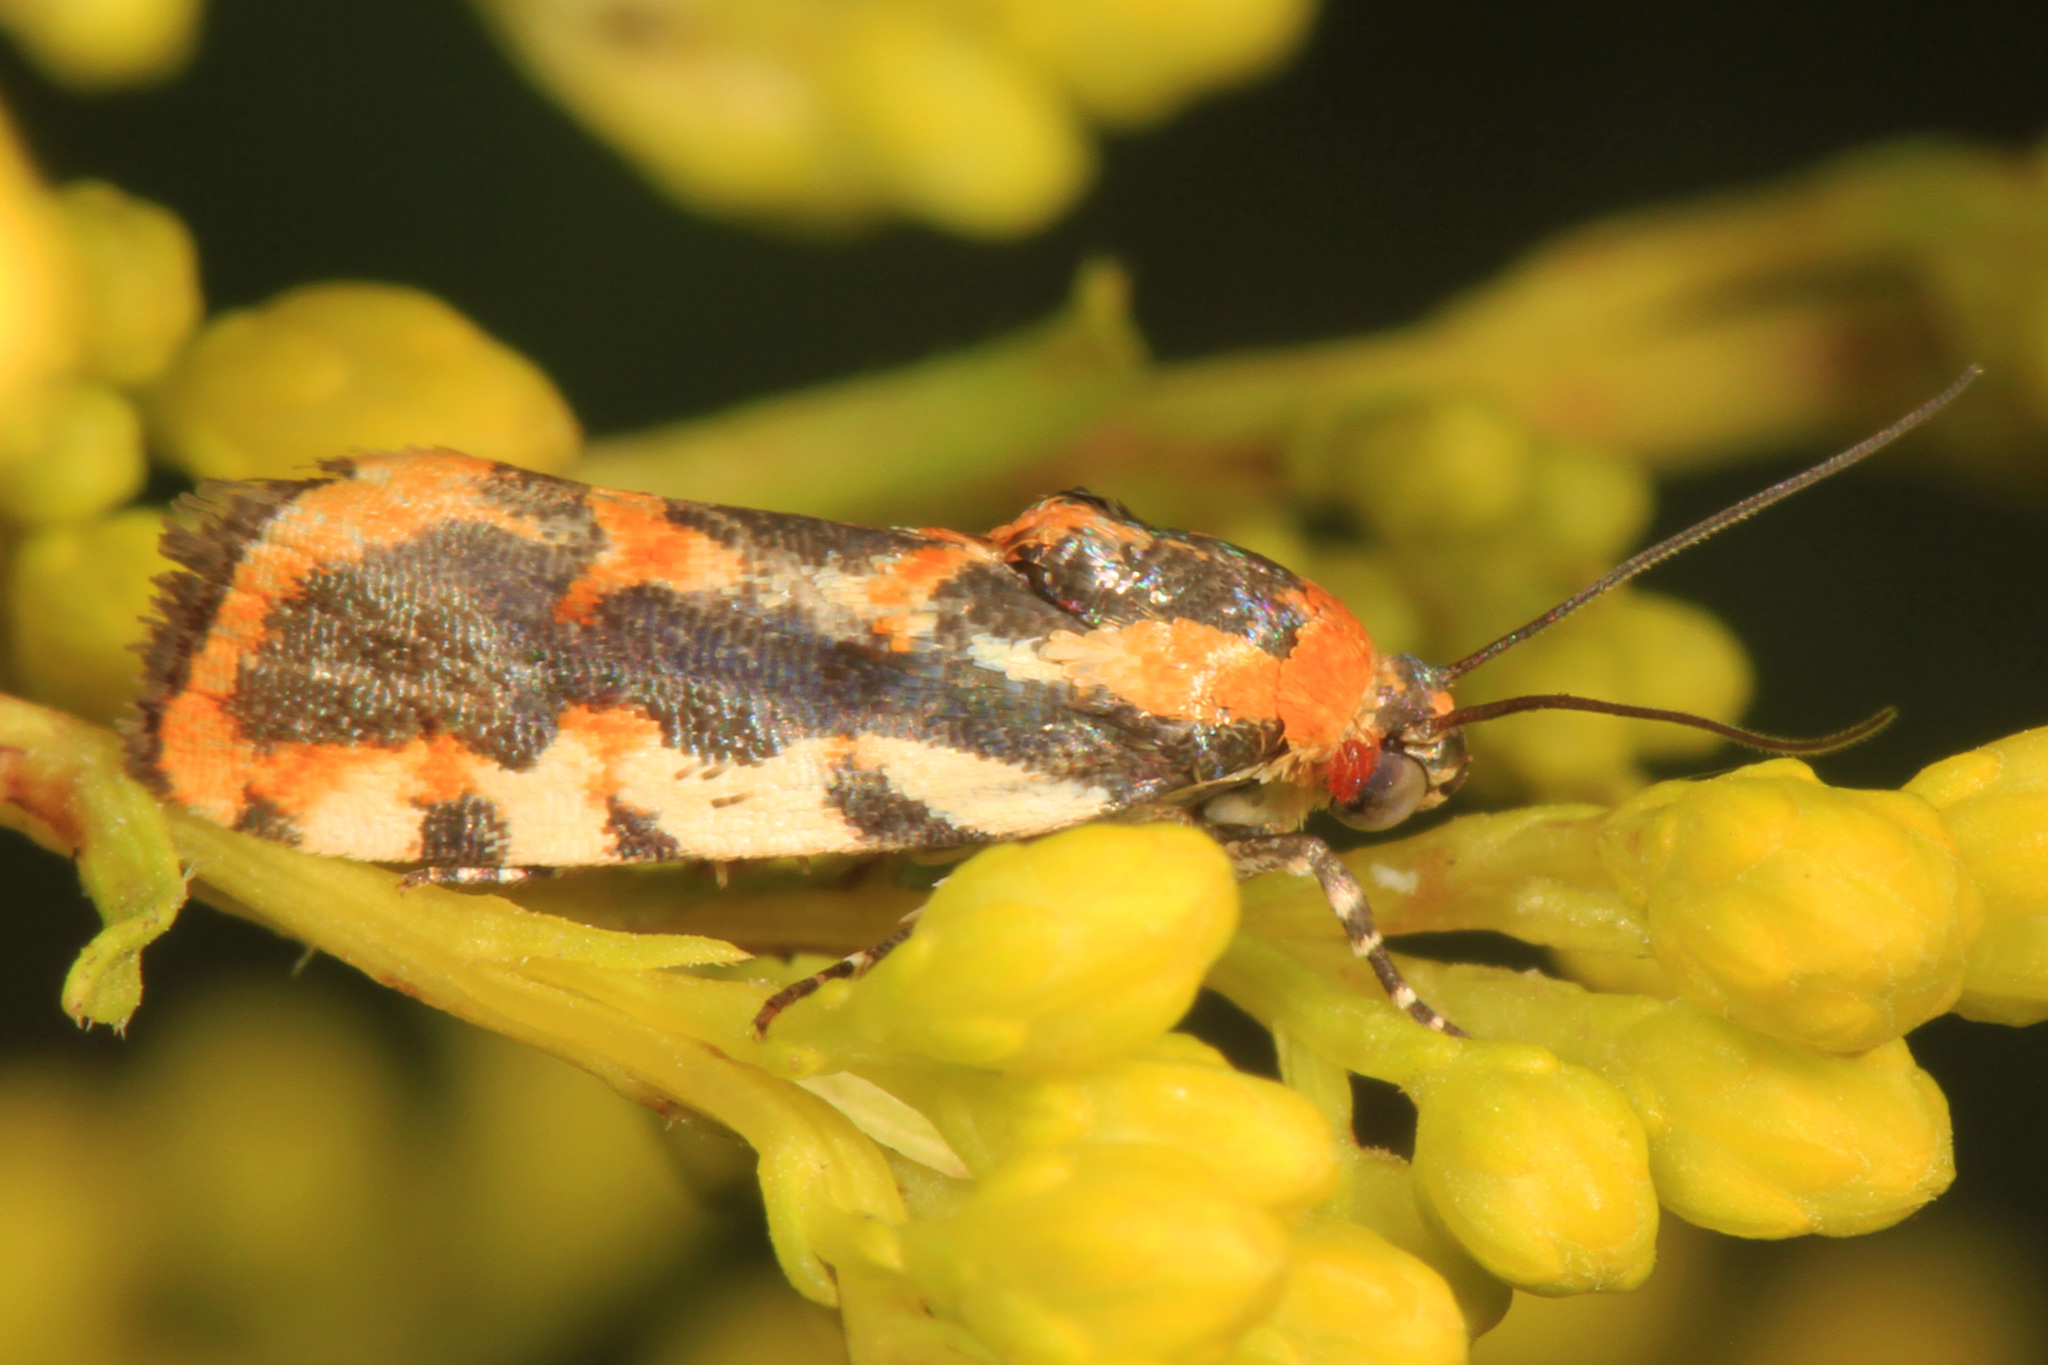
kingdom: Animalia
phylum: Arthropoda
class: Insecta
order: Lepidoptera
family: Noctuidae
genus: Acontia
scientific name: Acontia leo
